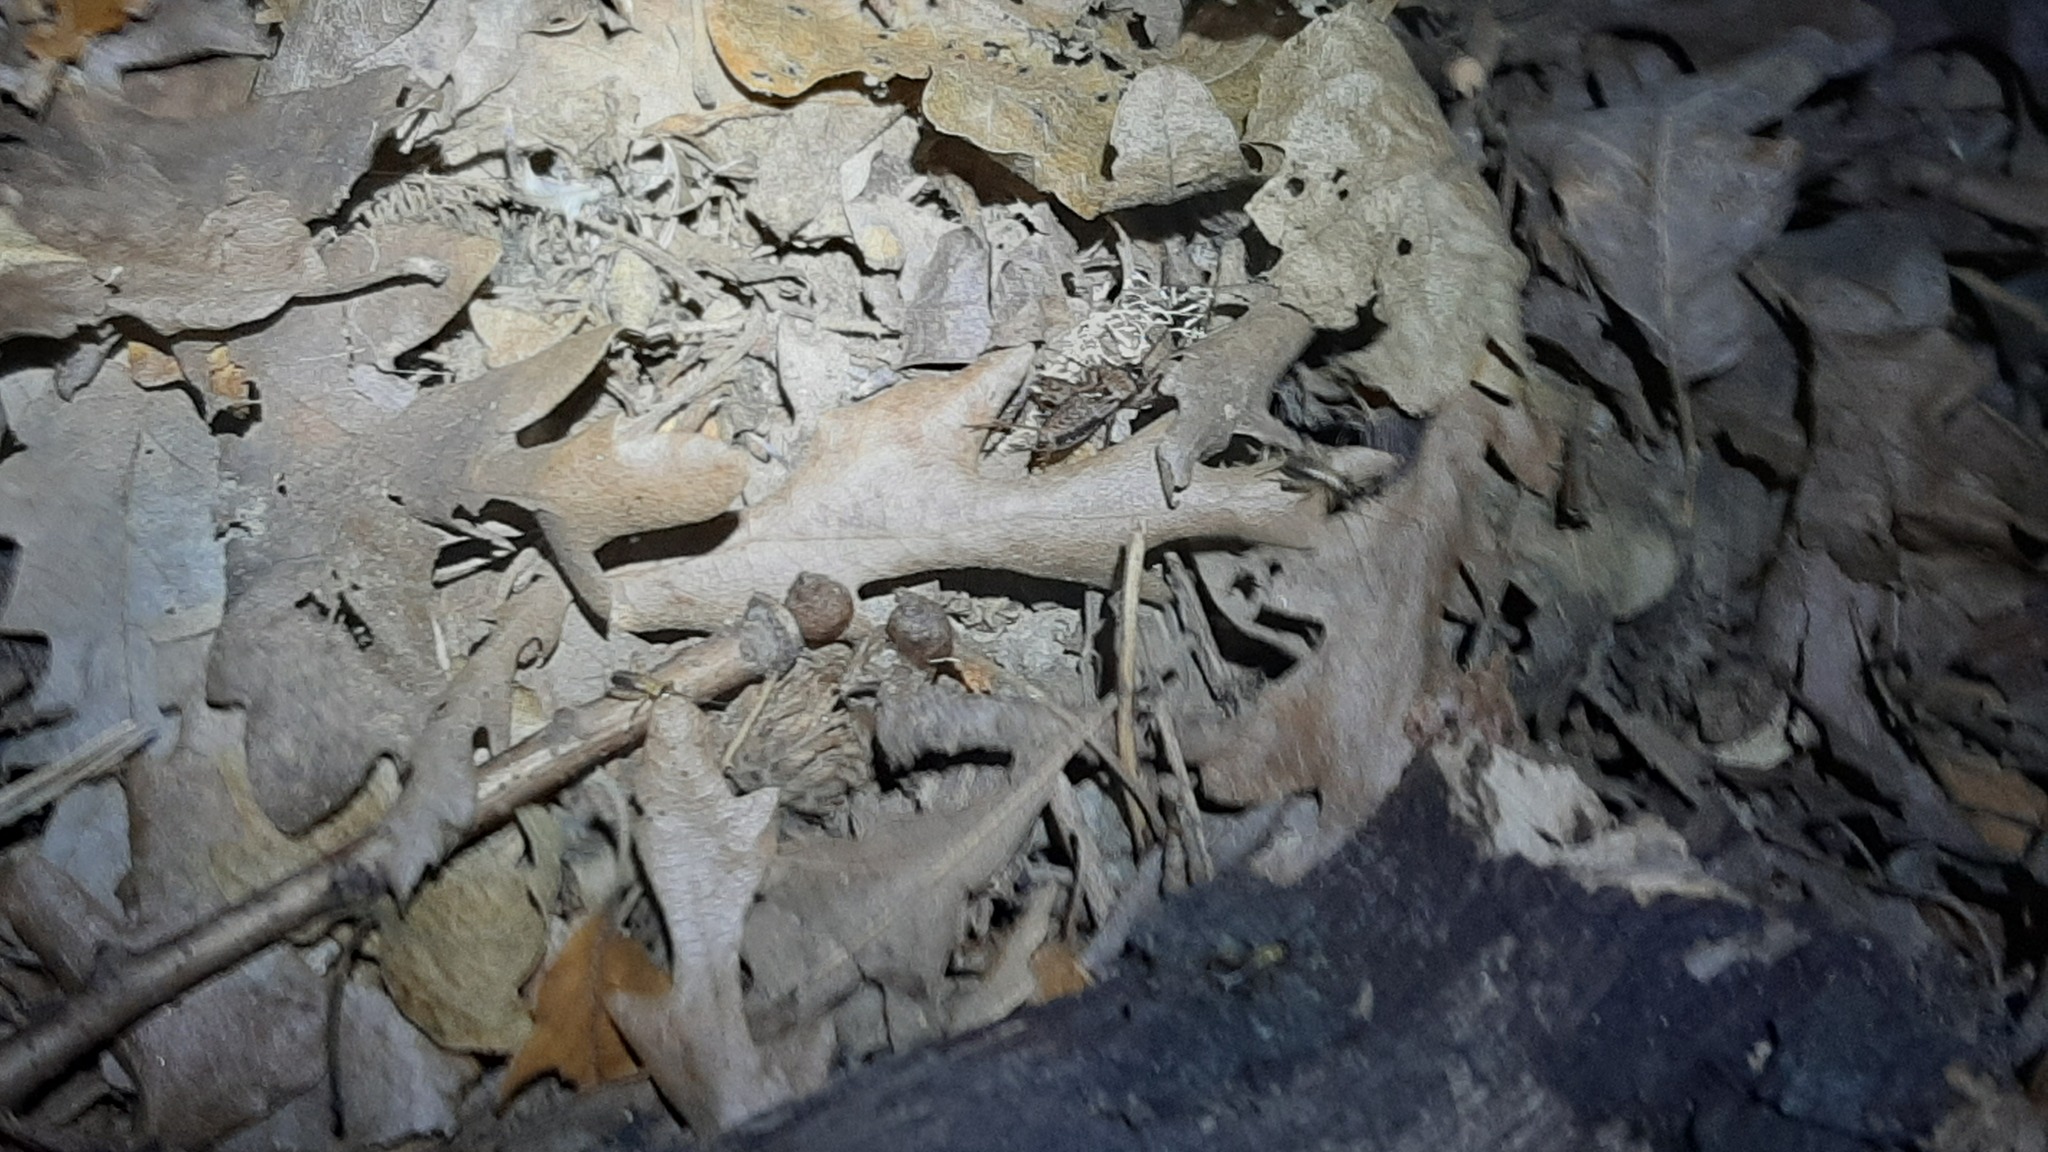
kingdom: Animalia
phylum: Arthropoda
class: Insecta
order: Orthoptera
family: Trigonidiidae
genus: Nemobius
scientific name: Nemobius sylvestris
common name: Wood-cricket
